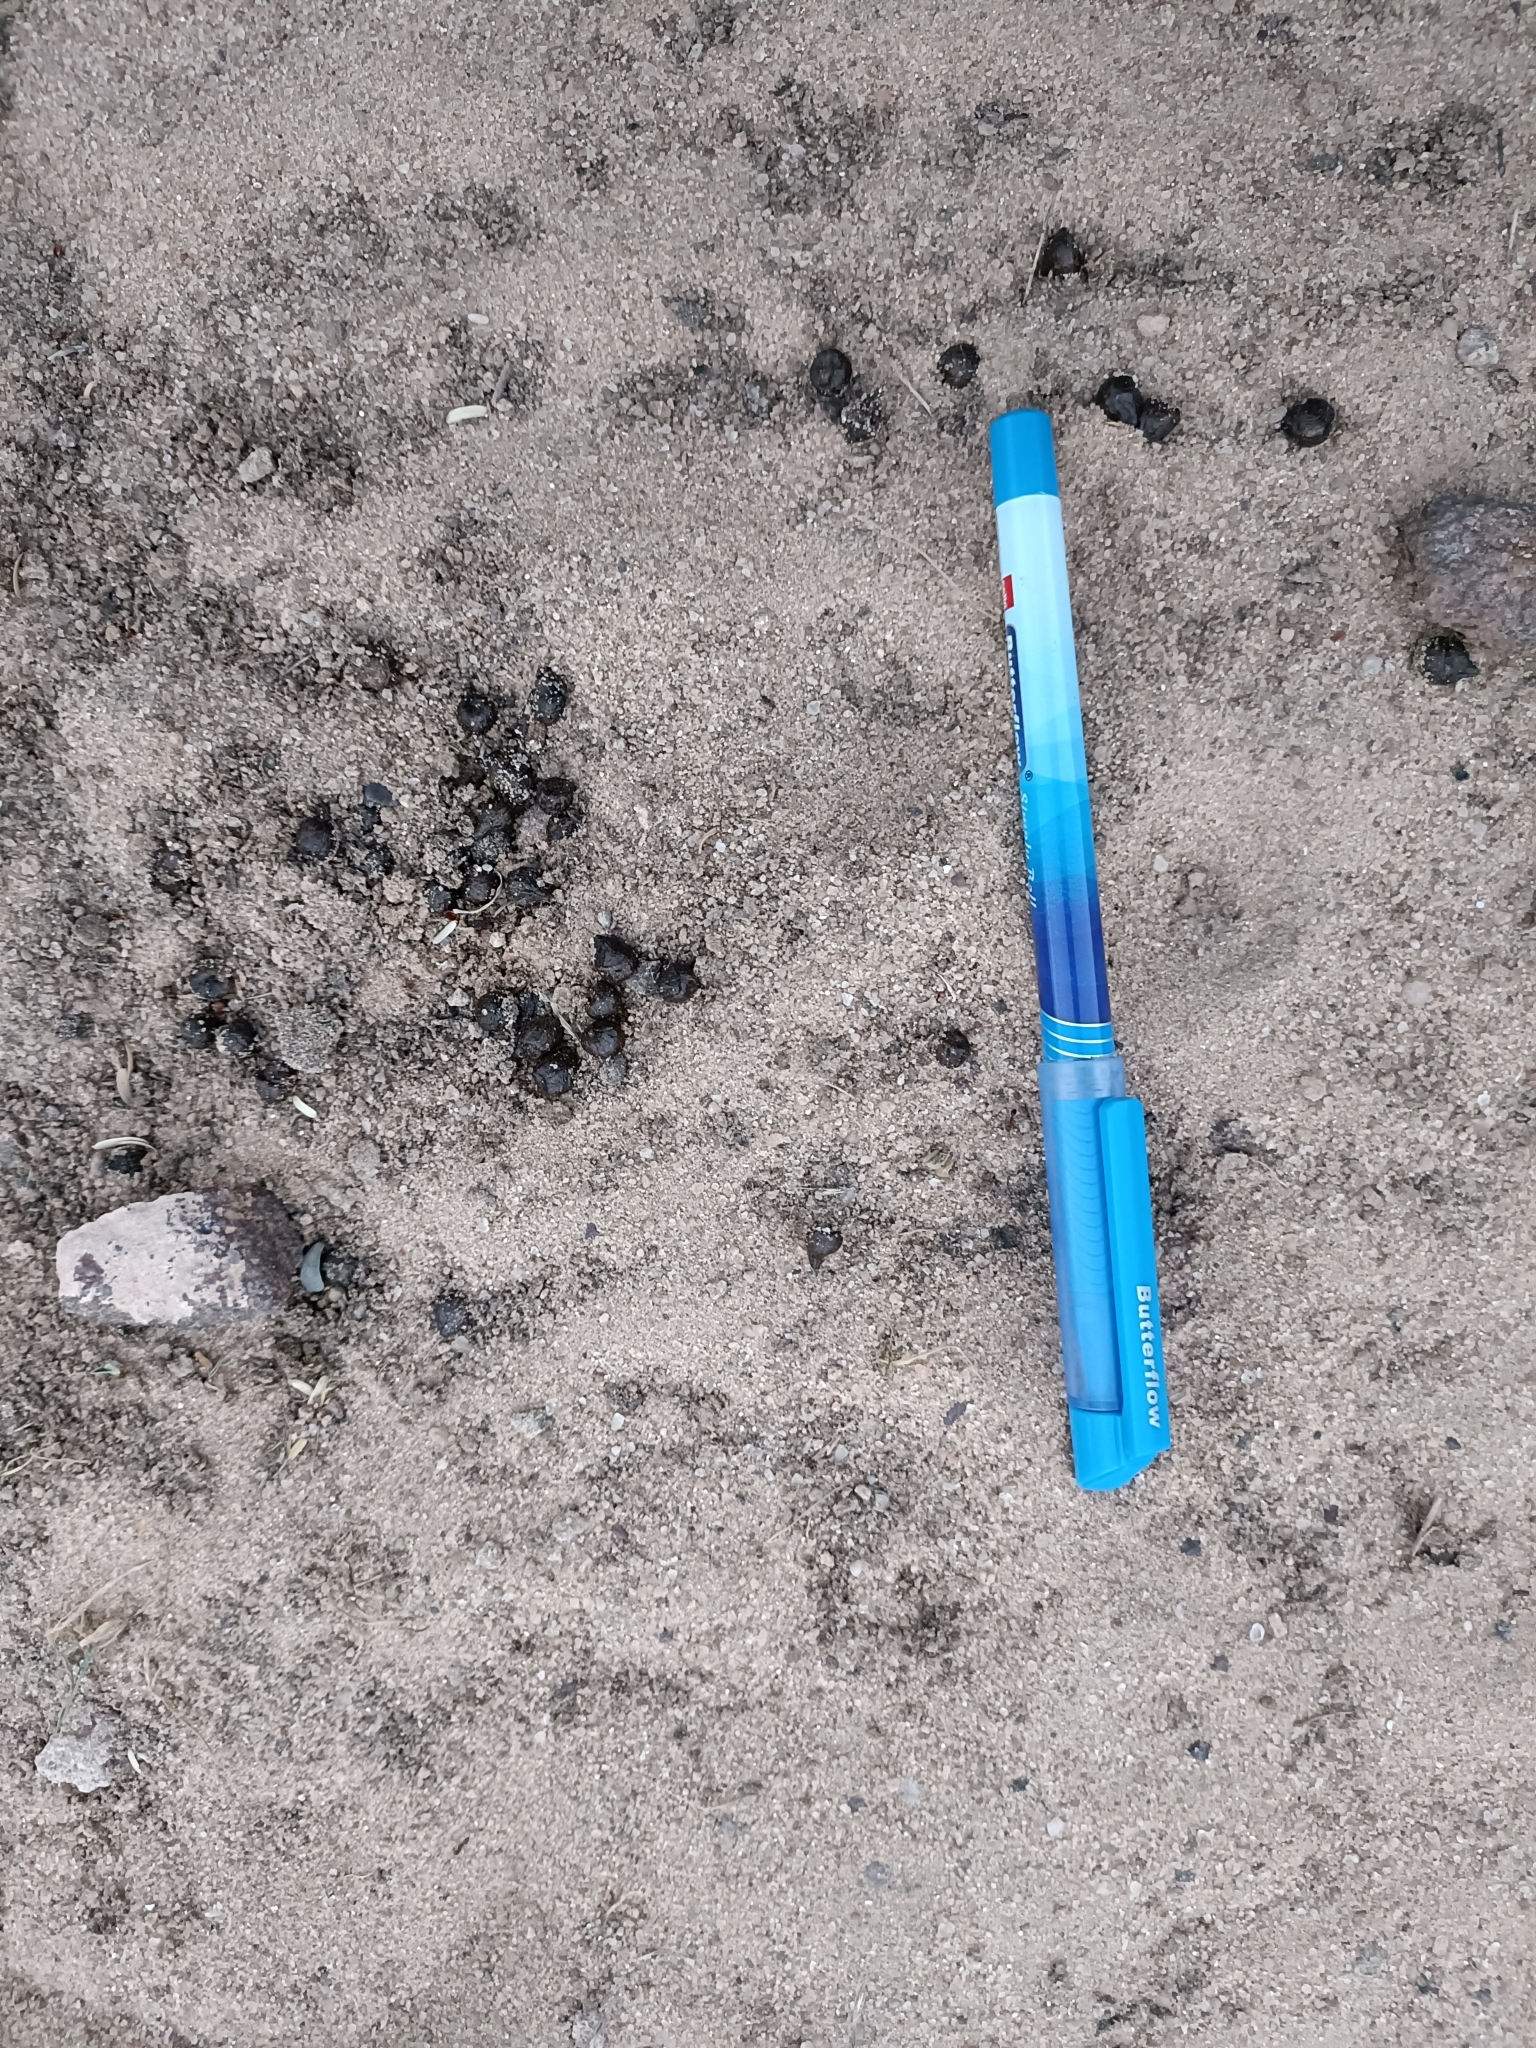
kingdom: Animalia
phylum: Chordata
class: Mammalia
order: Artiodactyla
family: Bovidae
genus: Gazella
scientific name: Gazella bennettii
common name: Indian gazelle
